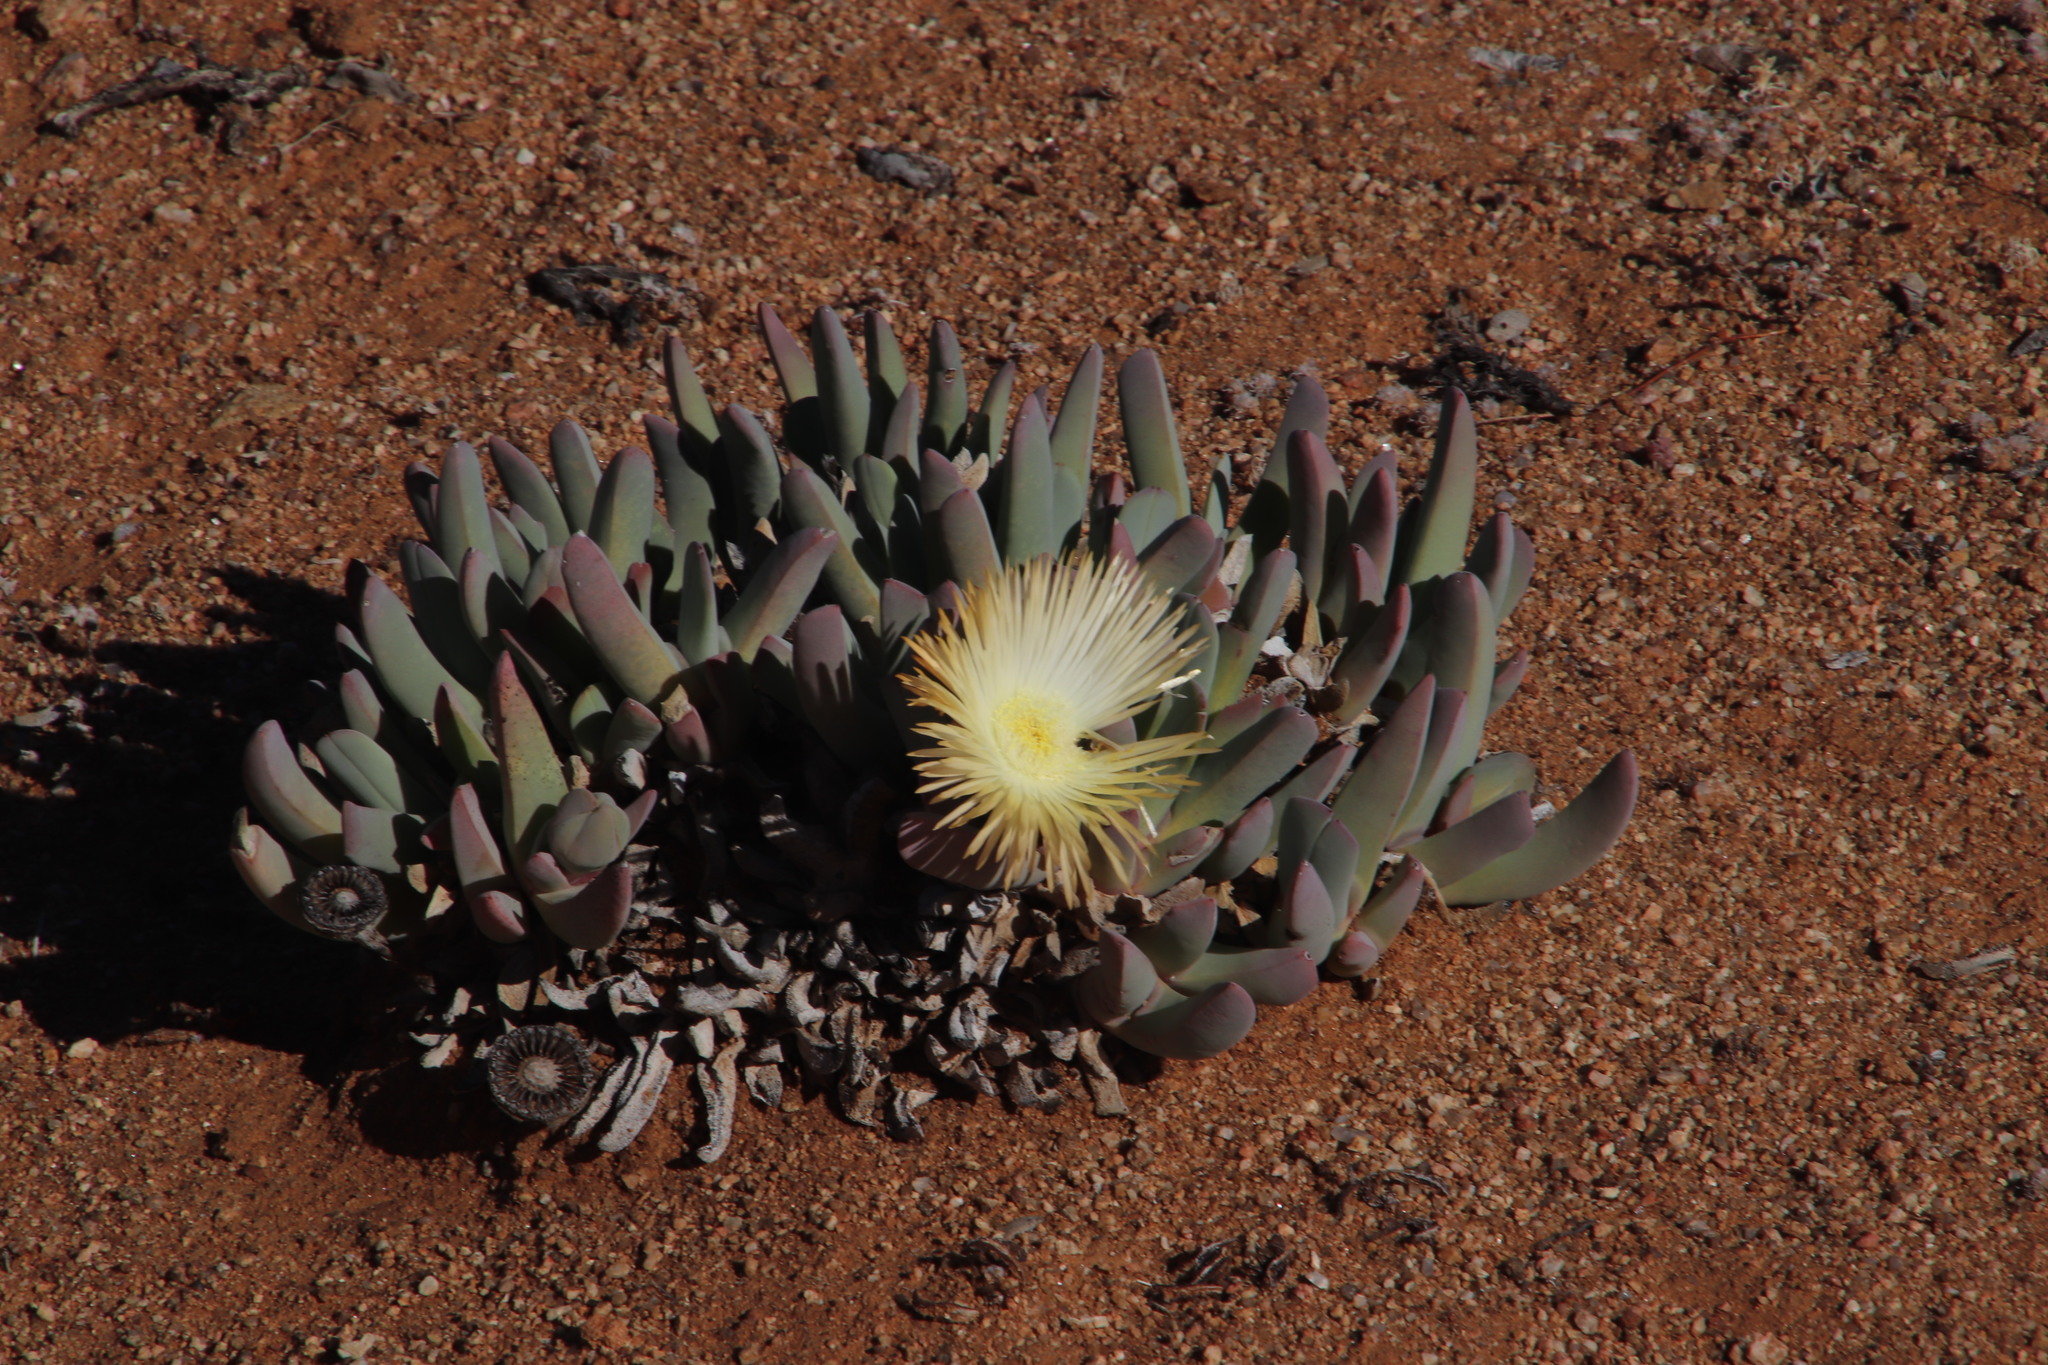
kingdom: Plantae
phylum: Tracheophyta
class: Magnoliopsida
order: Caryophyllales
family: Aizoaceae
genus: Cheiridopsis
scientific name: Cheiridopsis denticulata
